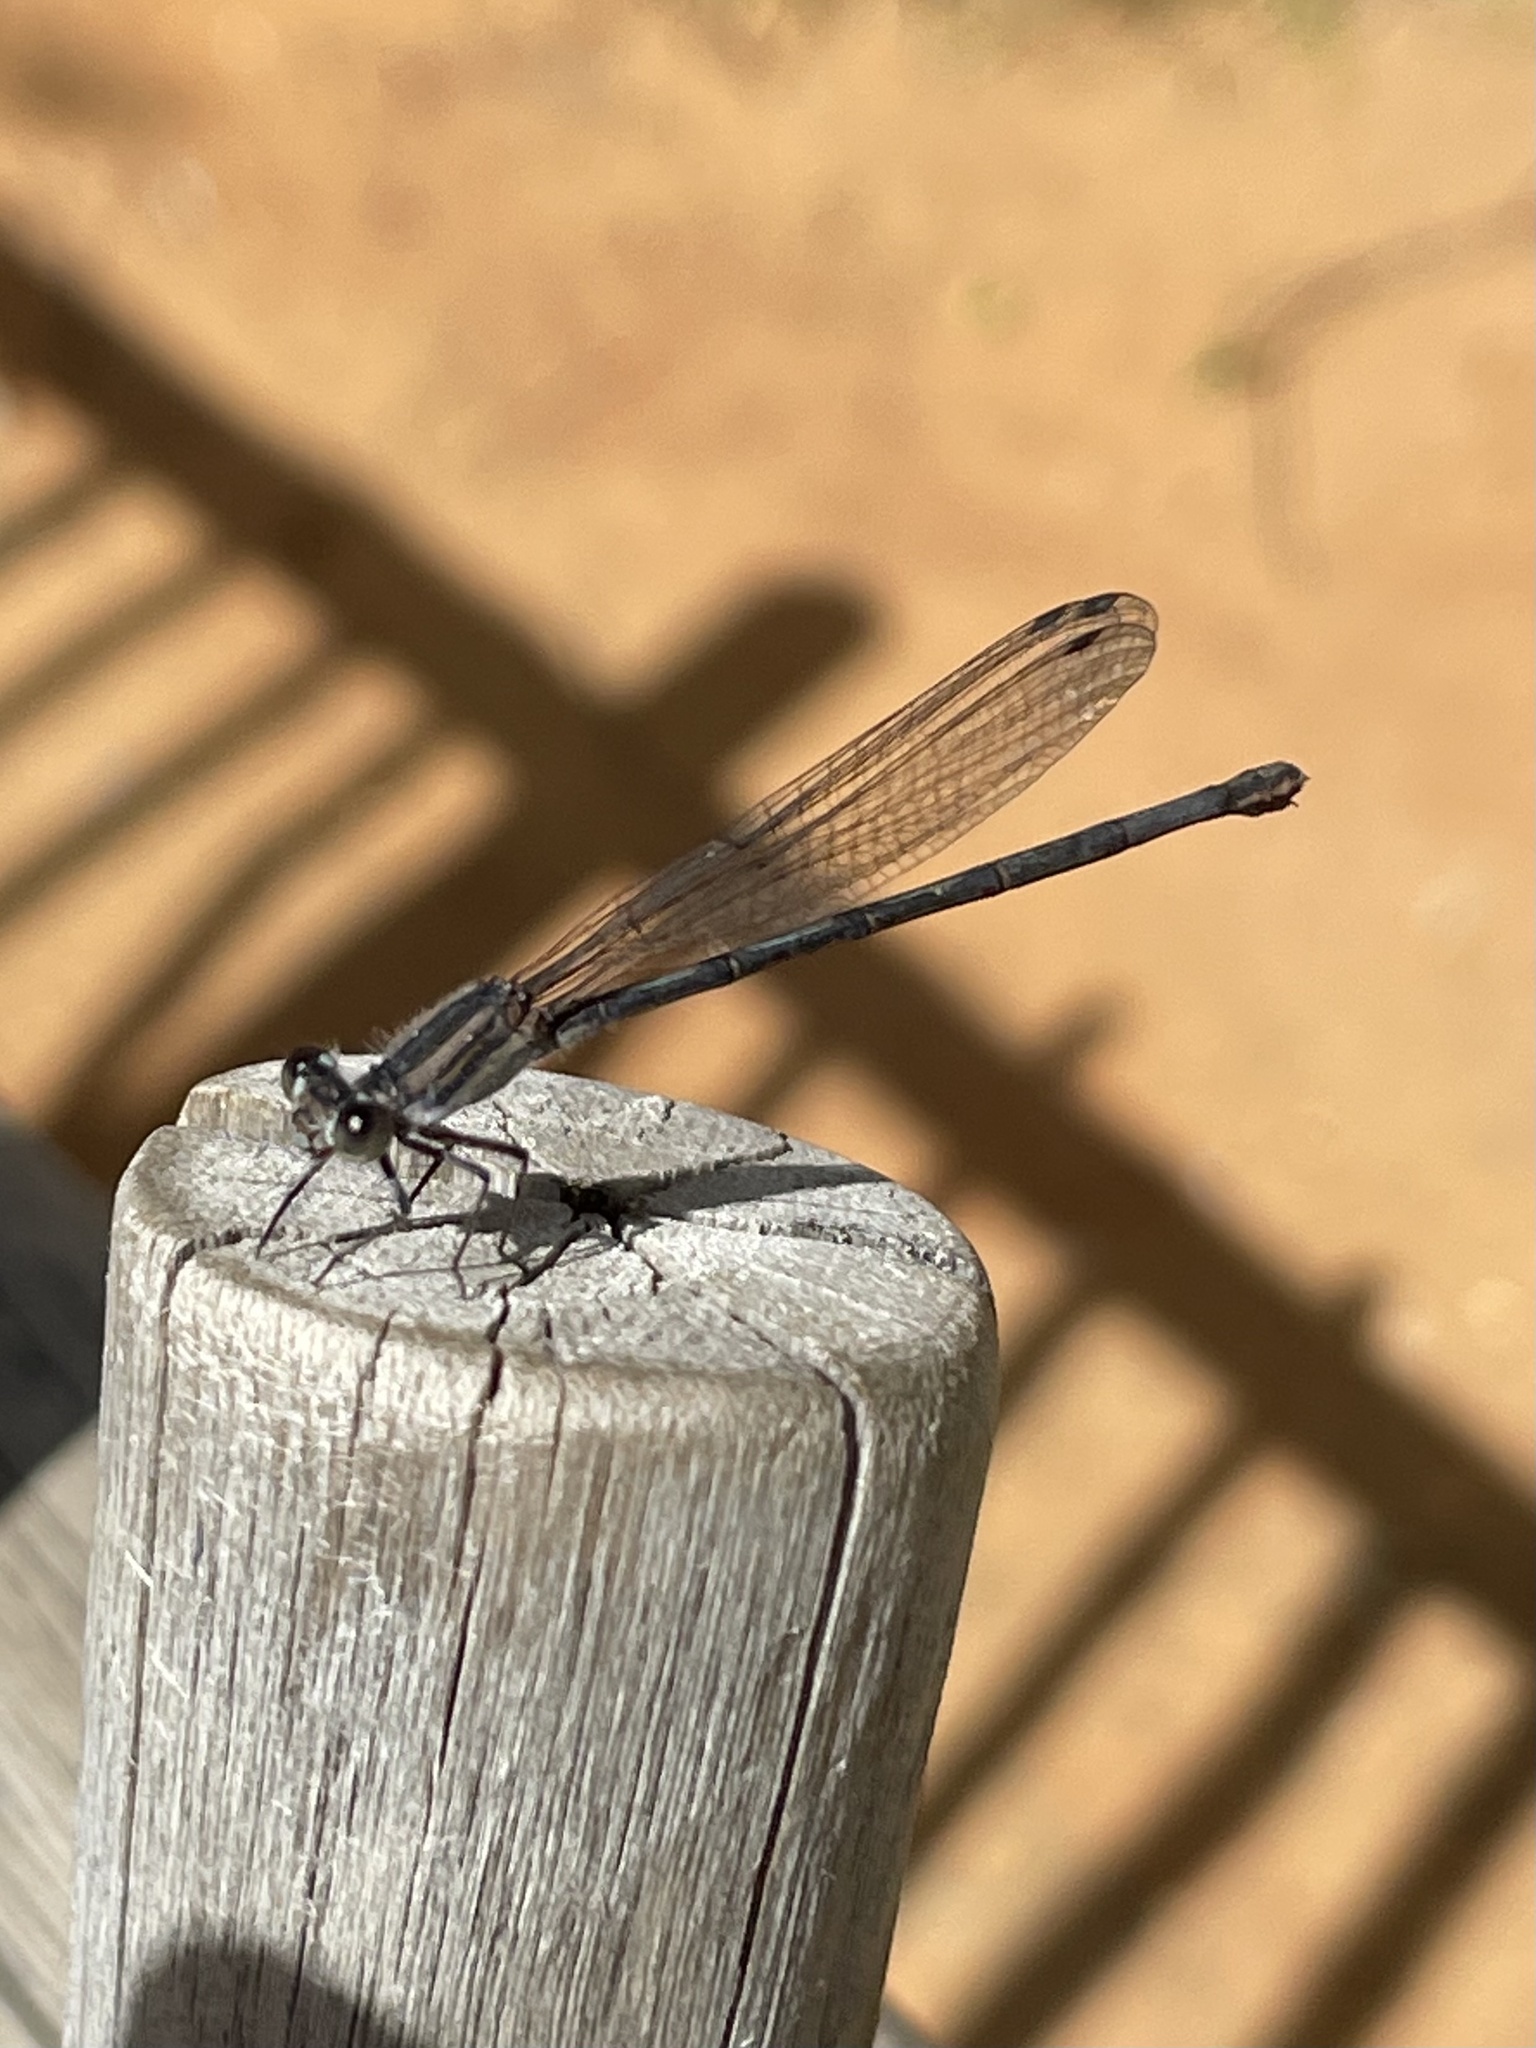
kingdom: Animalia
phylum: Arthropoda
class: Insecta
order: Odonata
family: Coenagrionidae
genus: Argia
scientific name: Argia translata
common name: Dusky dancer
